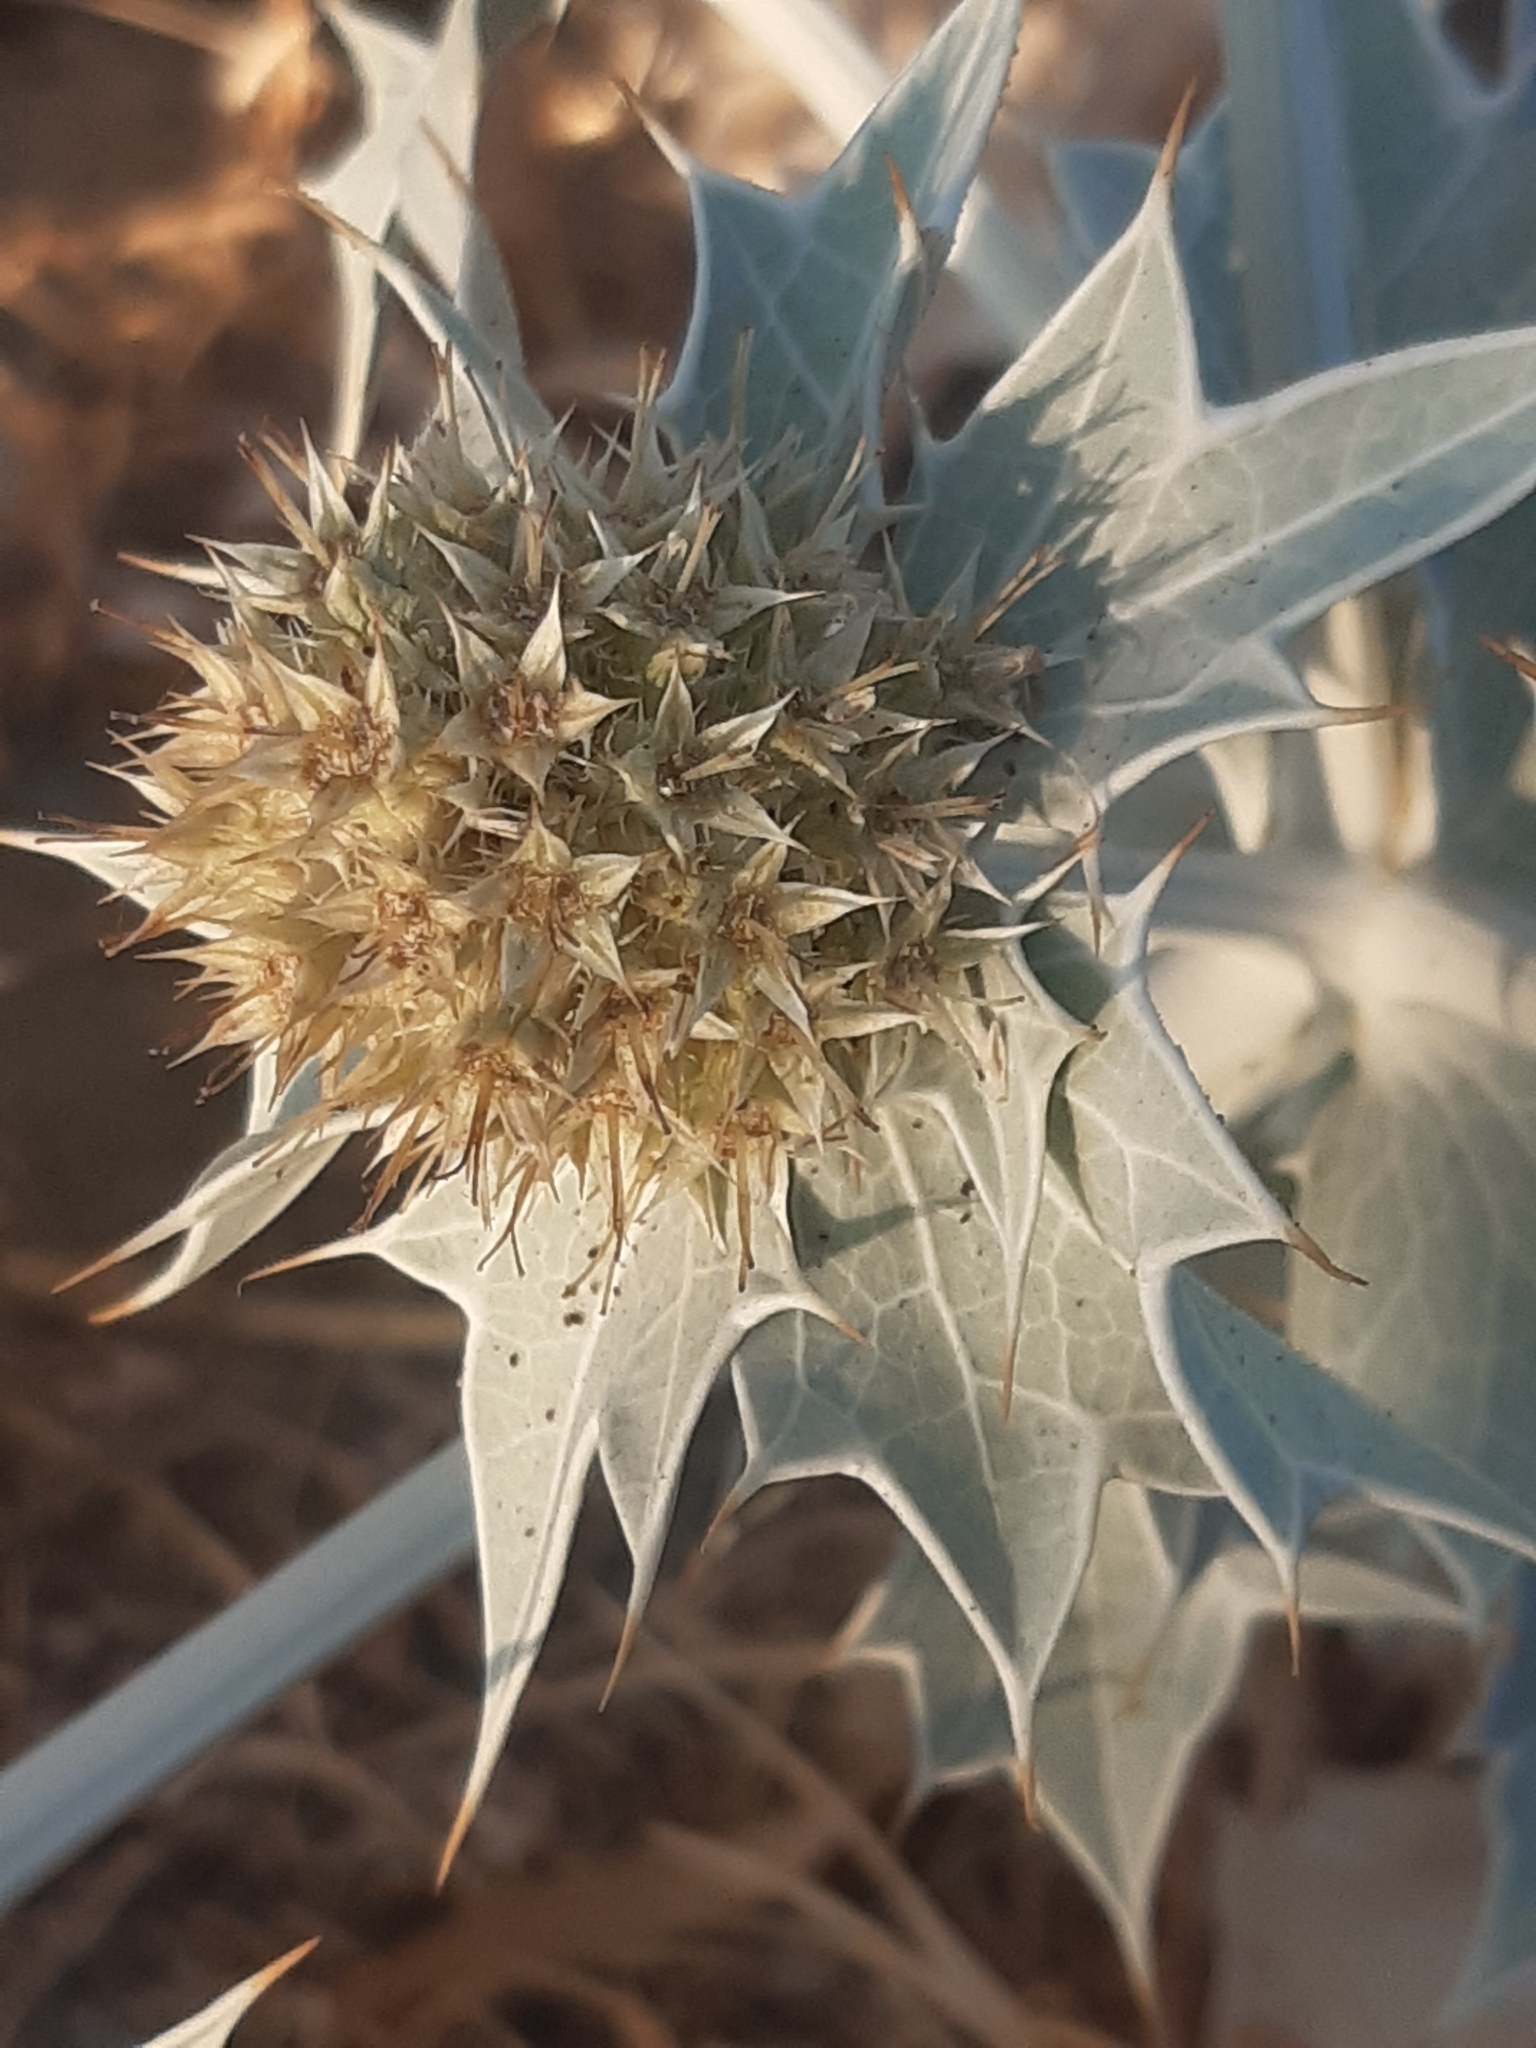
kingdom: Plantae
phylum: Tracheophyta
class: Magnoliopsida
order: Apiales
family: Apiaceae
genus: Eryngium
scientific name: Eryngium maritimum
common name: Sea-holly
